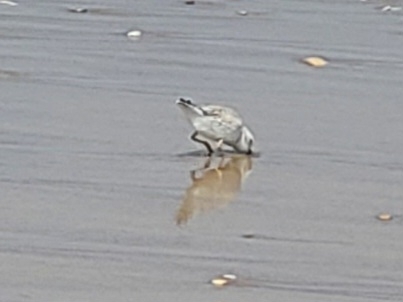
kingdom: Animalia
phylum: Chordata
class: Aves
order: Charadriiformes
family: Charadriidae
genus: Charadrius
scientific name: Charadrius melodus
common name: Piping plover
